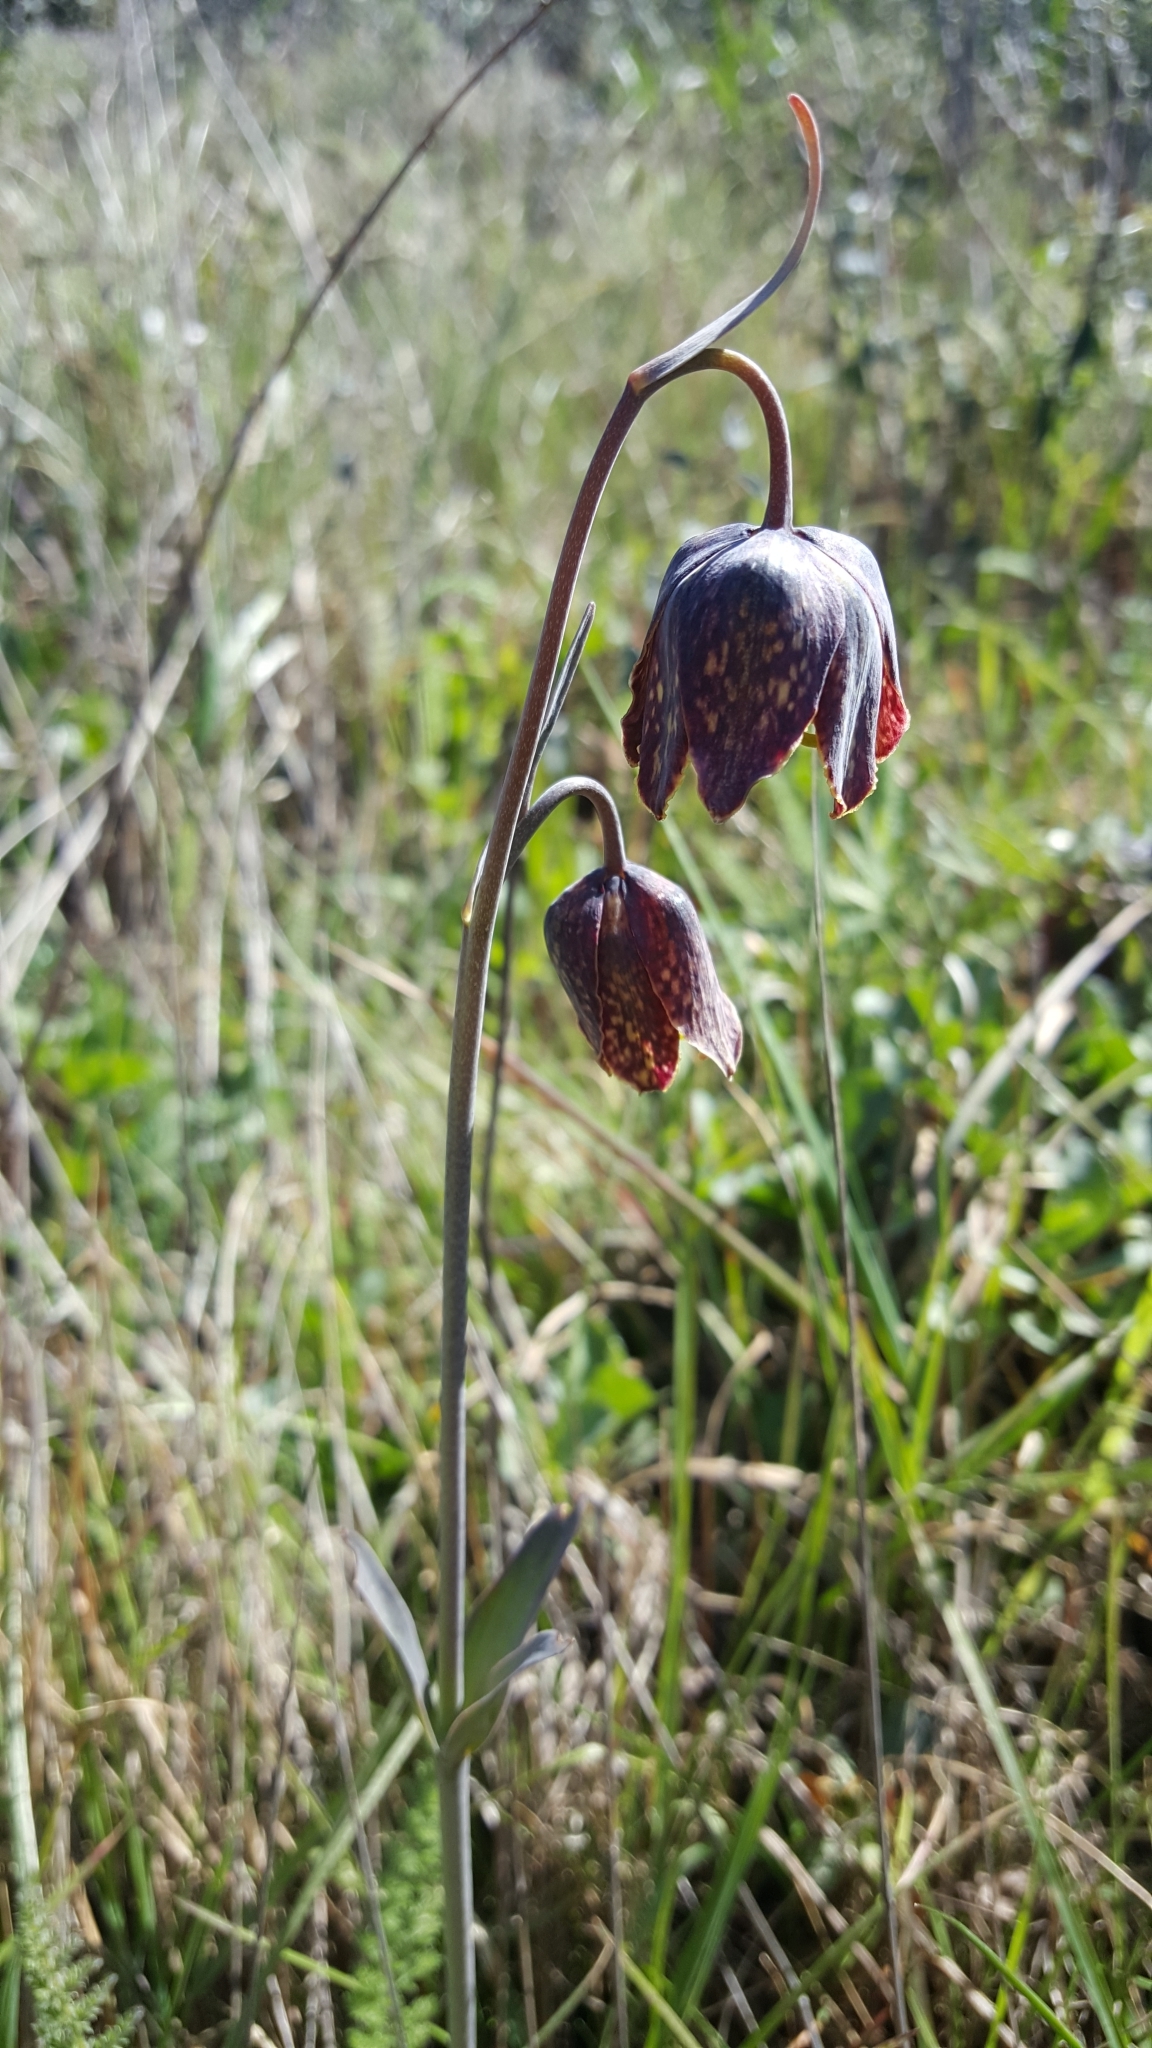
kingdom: Plantae
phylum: Tracheophyta
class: Liliopsida
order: Liliales
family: Liliaceae
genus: Fritillaria
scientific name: Fritillaria affinis
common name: Ojai fritillary
